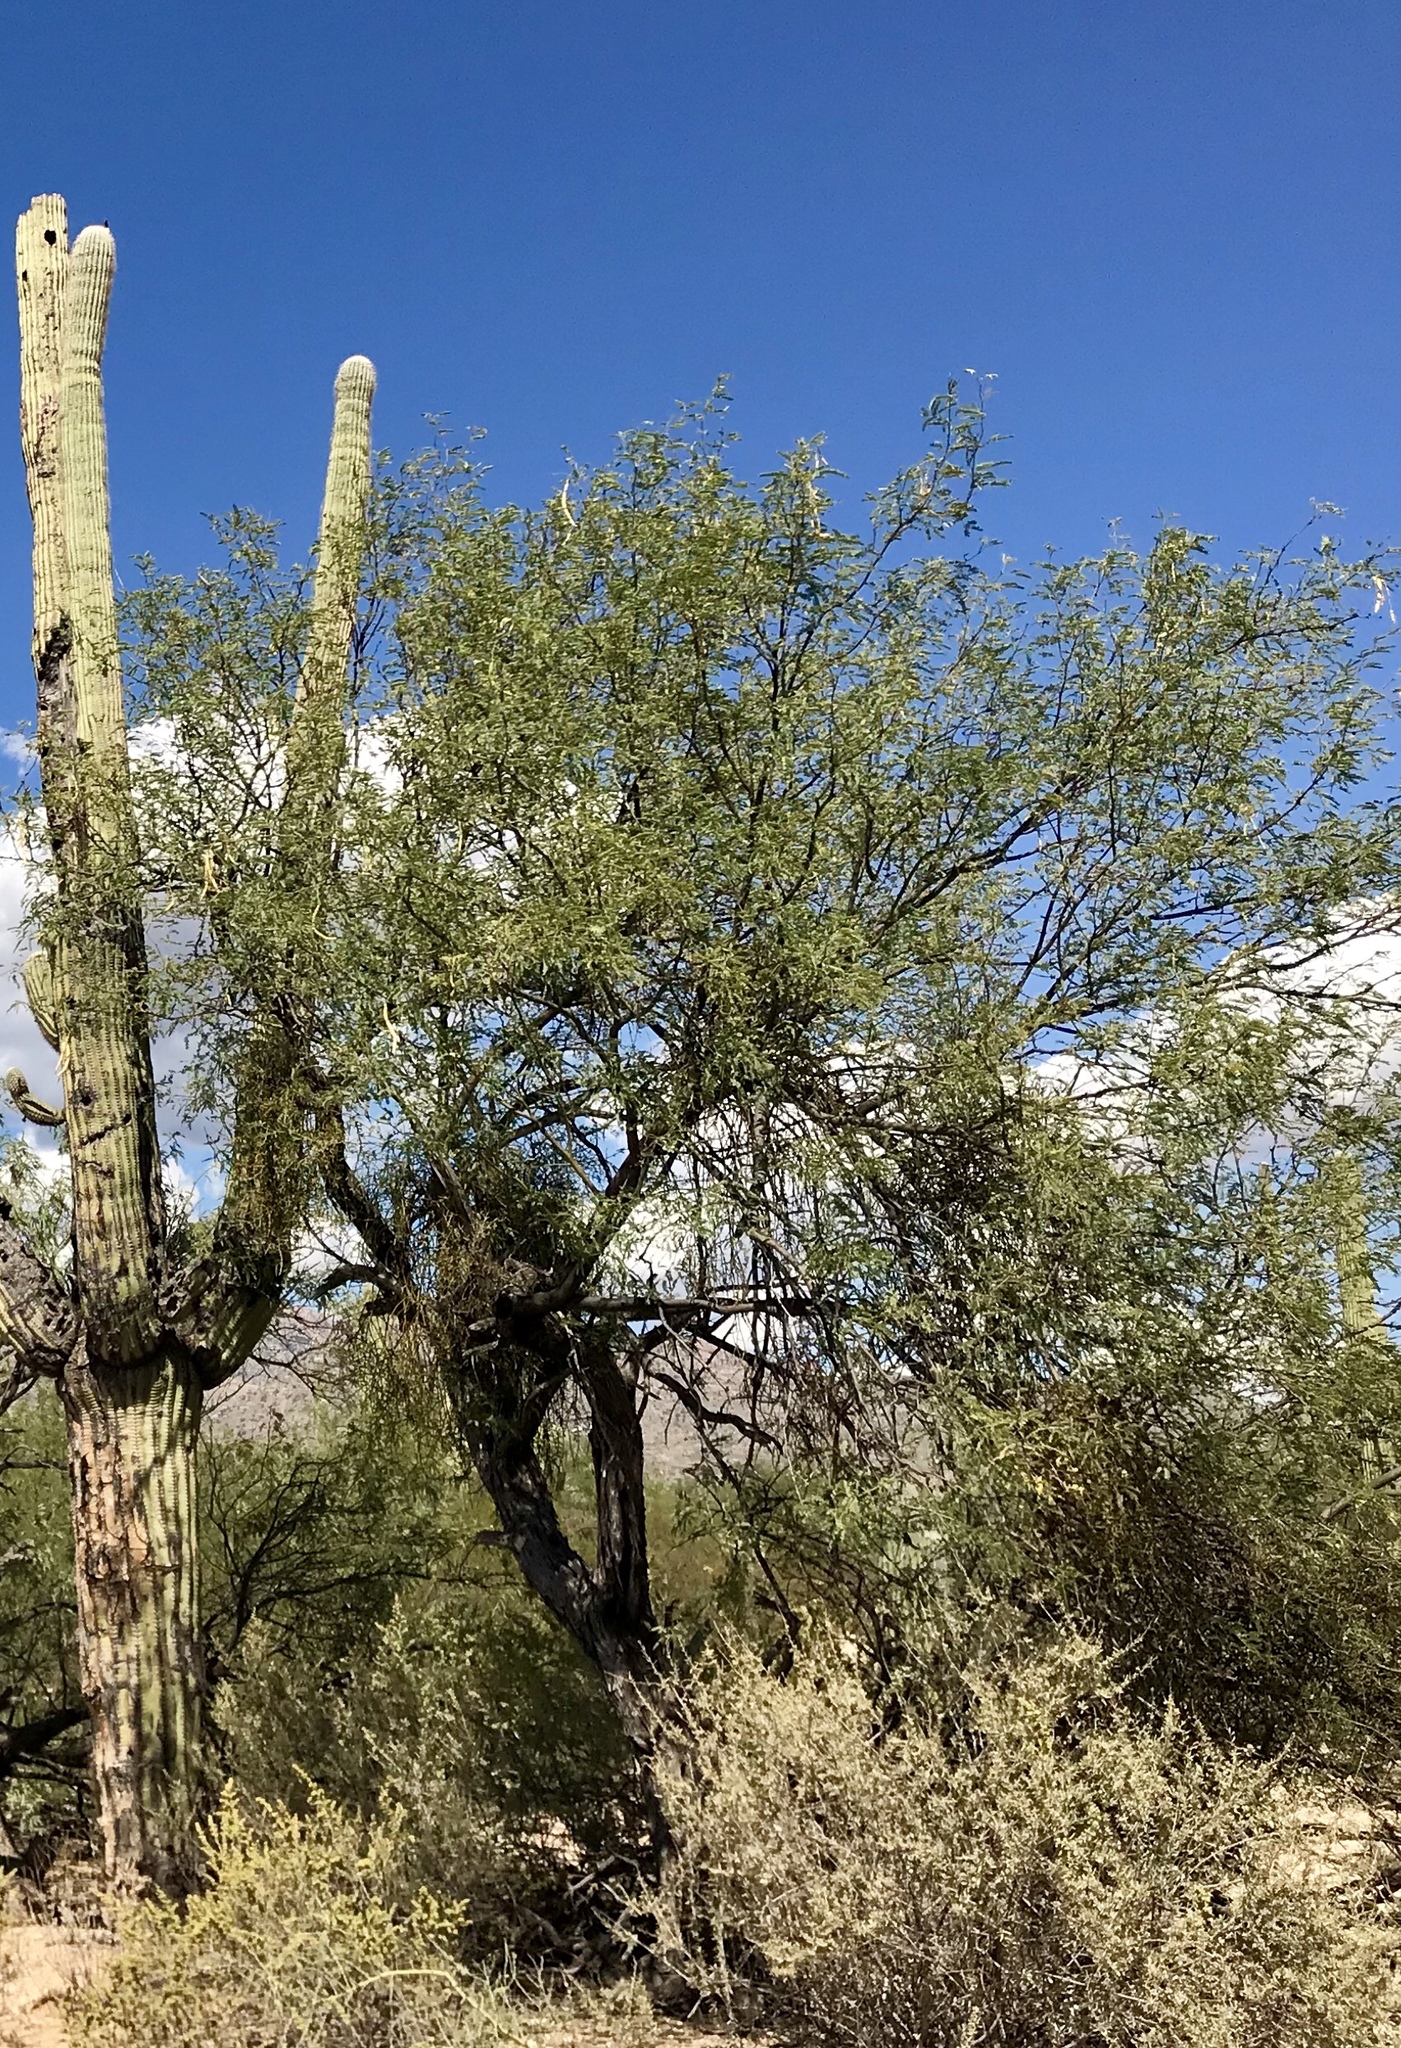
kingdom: Plantae
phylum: Tracheophyta
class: Magnoliopsida
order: Fabales
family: Fabaceae
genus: Prosopis
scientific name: Prosopis velutina
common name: Velvet mesquite
